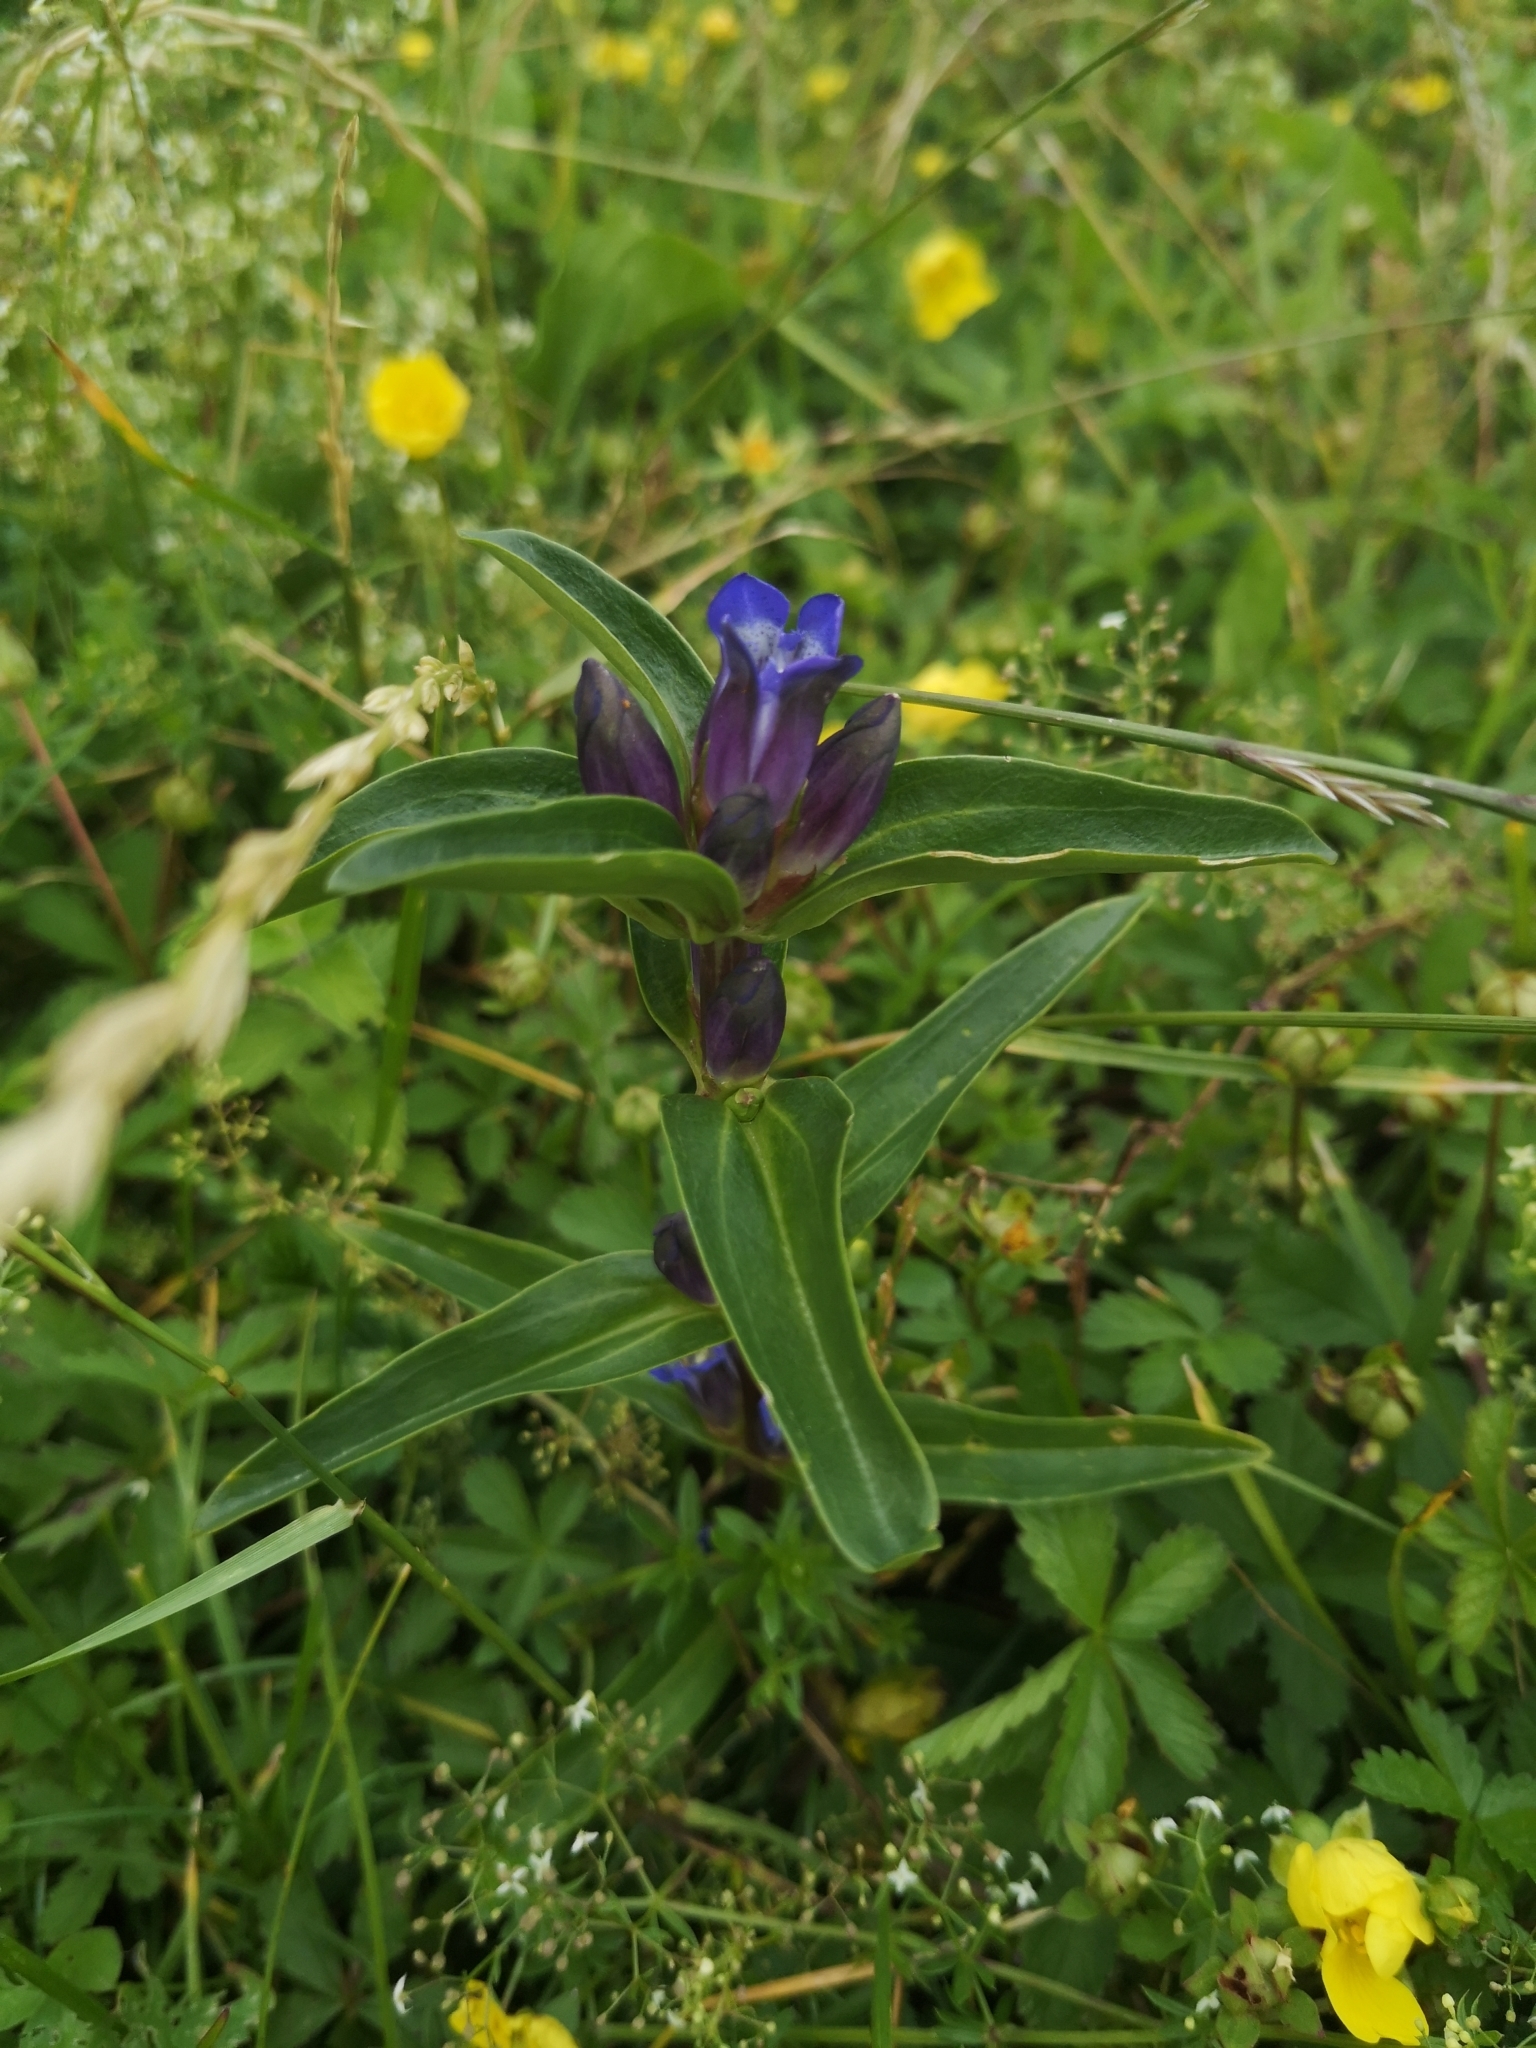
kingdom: Plantae
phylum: Tracheophyta
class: Magnoliopsida
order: Gentianales
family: Gentianaceae
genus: Gentiana
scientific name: Gentiana cruciata
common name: Cross gentian
